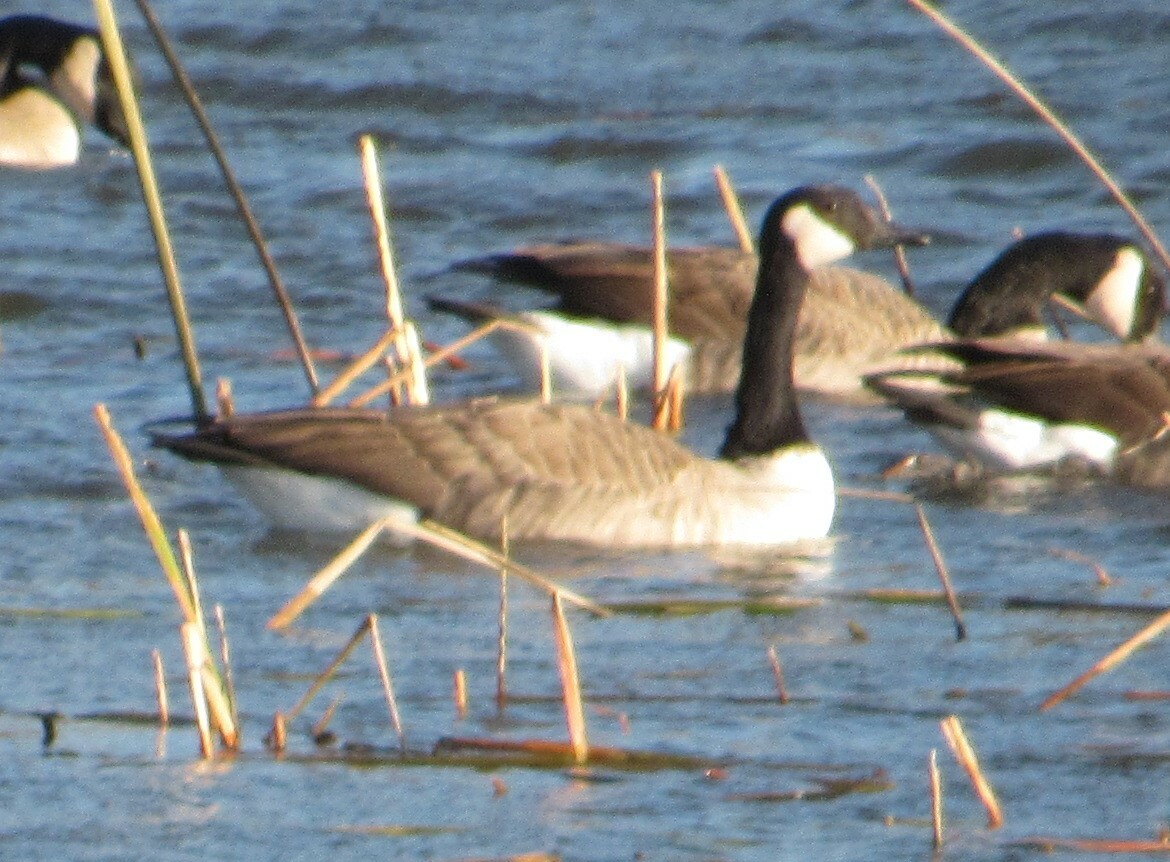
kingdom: Animalia
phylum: Chordata
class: Aves
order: Anseriformes
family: Anatidae
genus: Branta
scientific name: Branta canadensis
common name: Canada goose
